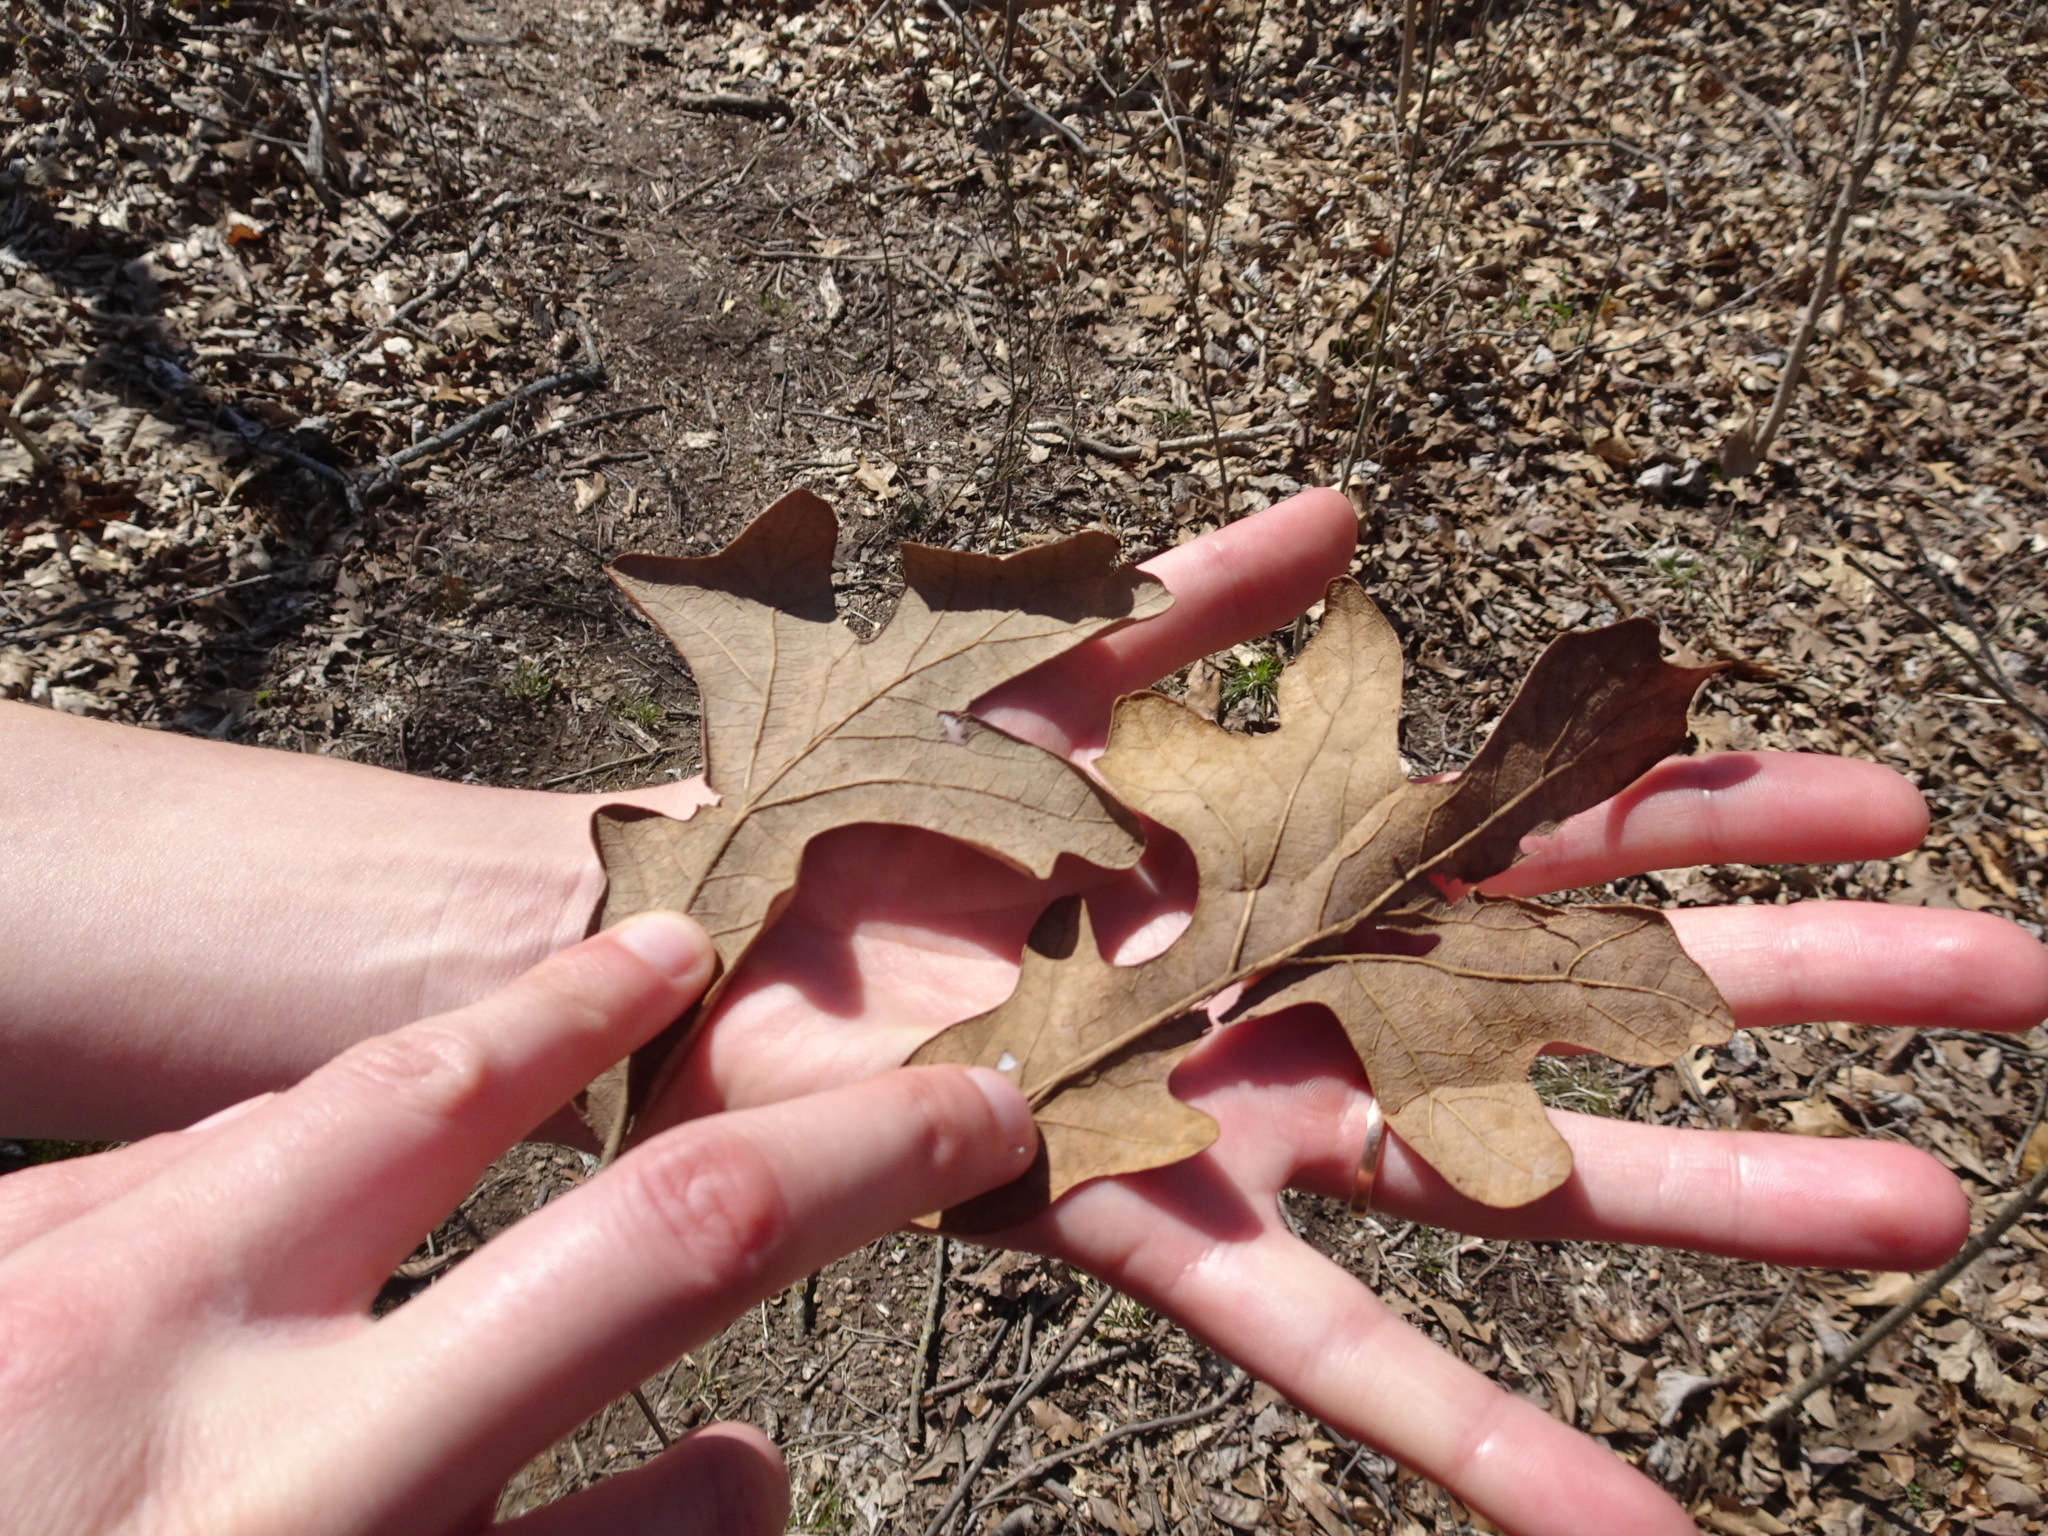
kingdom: Plantae
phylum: Tracheophyta
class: Magnoliopsida
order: Fagales
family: Fagaceae
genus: Quercus
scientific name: Quercus stellata
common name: Post oak
